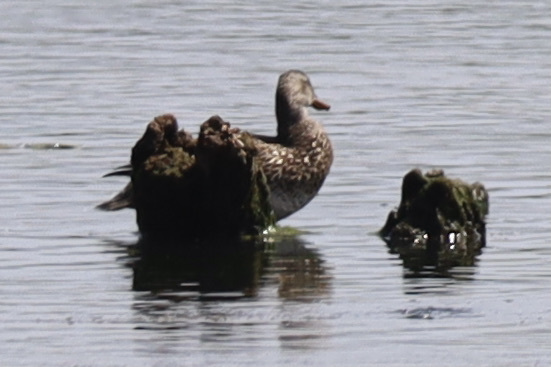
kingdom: Animalia
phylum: Chordata
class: Aves
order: Anseriformes
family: Anatidae
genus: Mareca
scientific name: Mareca strepera
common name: Gadwall
